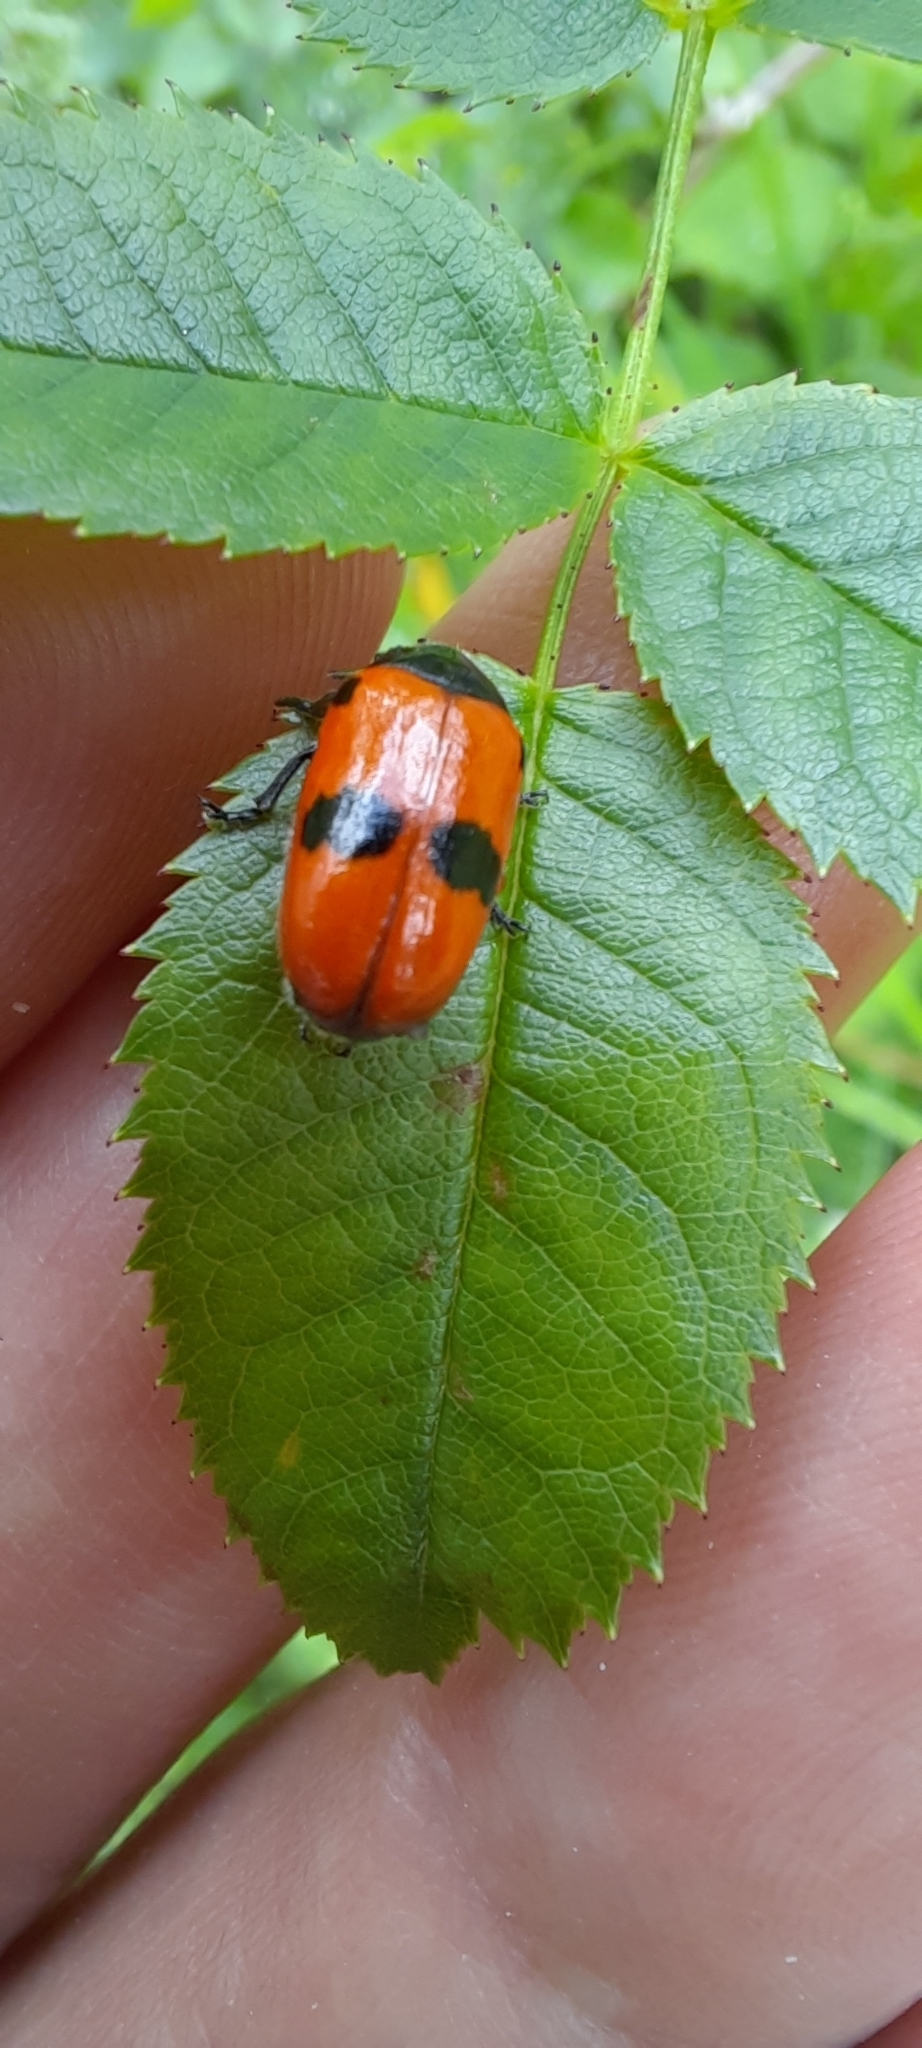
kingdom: Animalia
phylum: Arthropoda
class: Insecta
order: Coleoptera
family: Chrysomelidae
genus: Clytra
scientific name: Clytra laeviuscula
